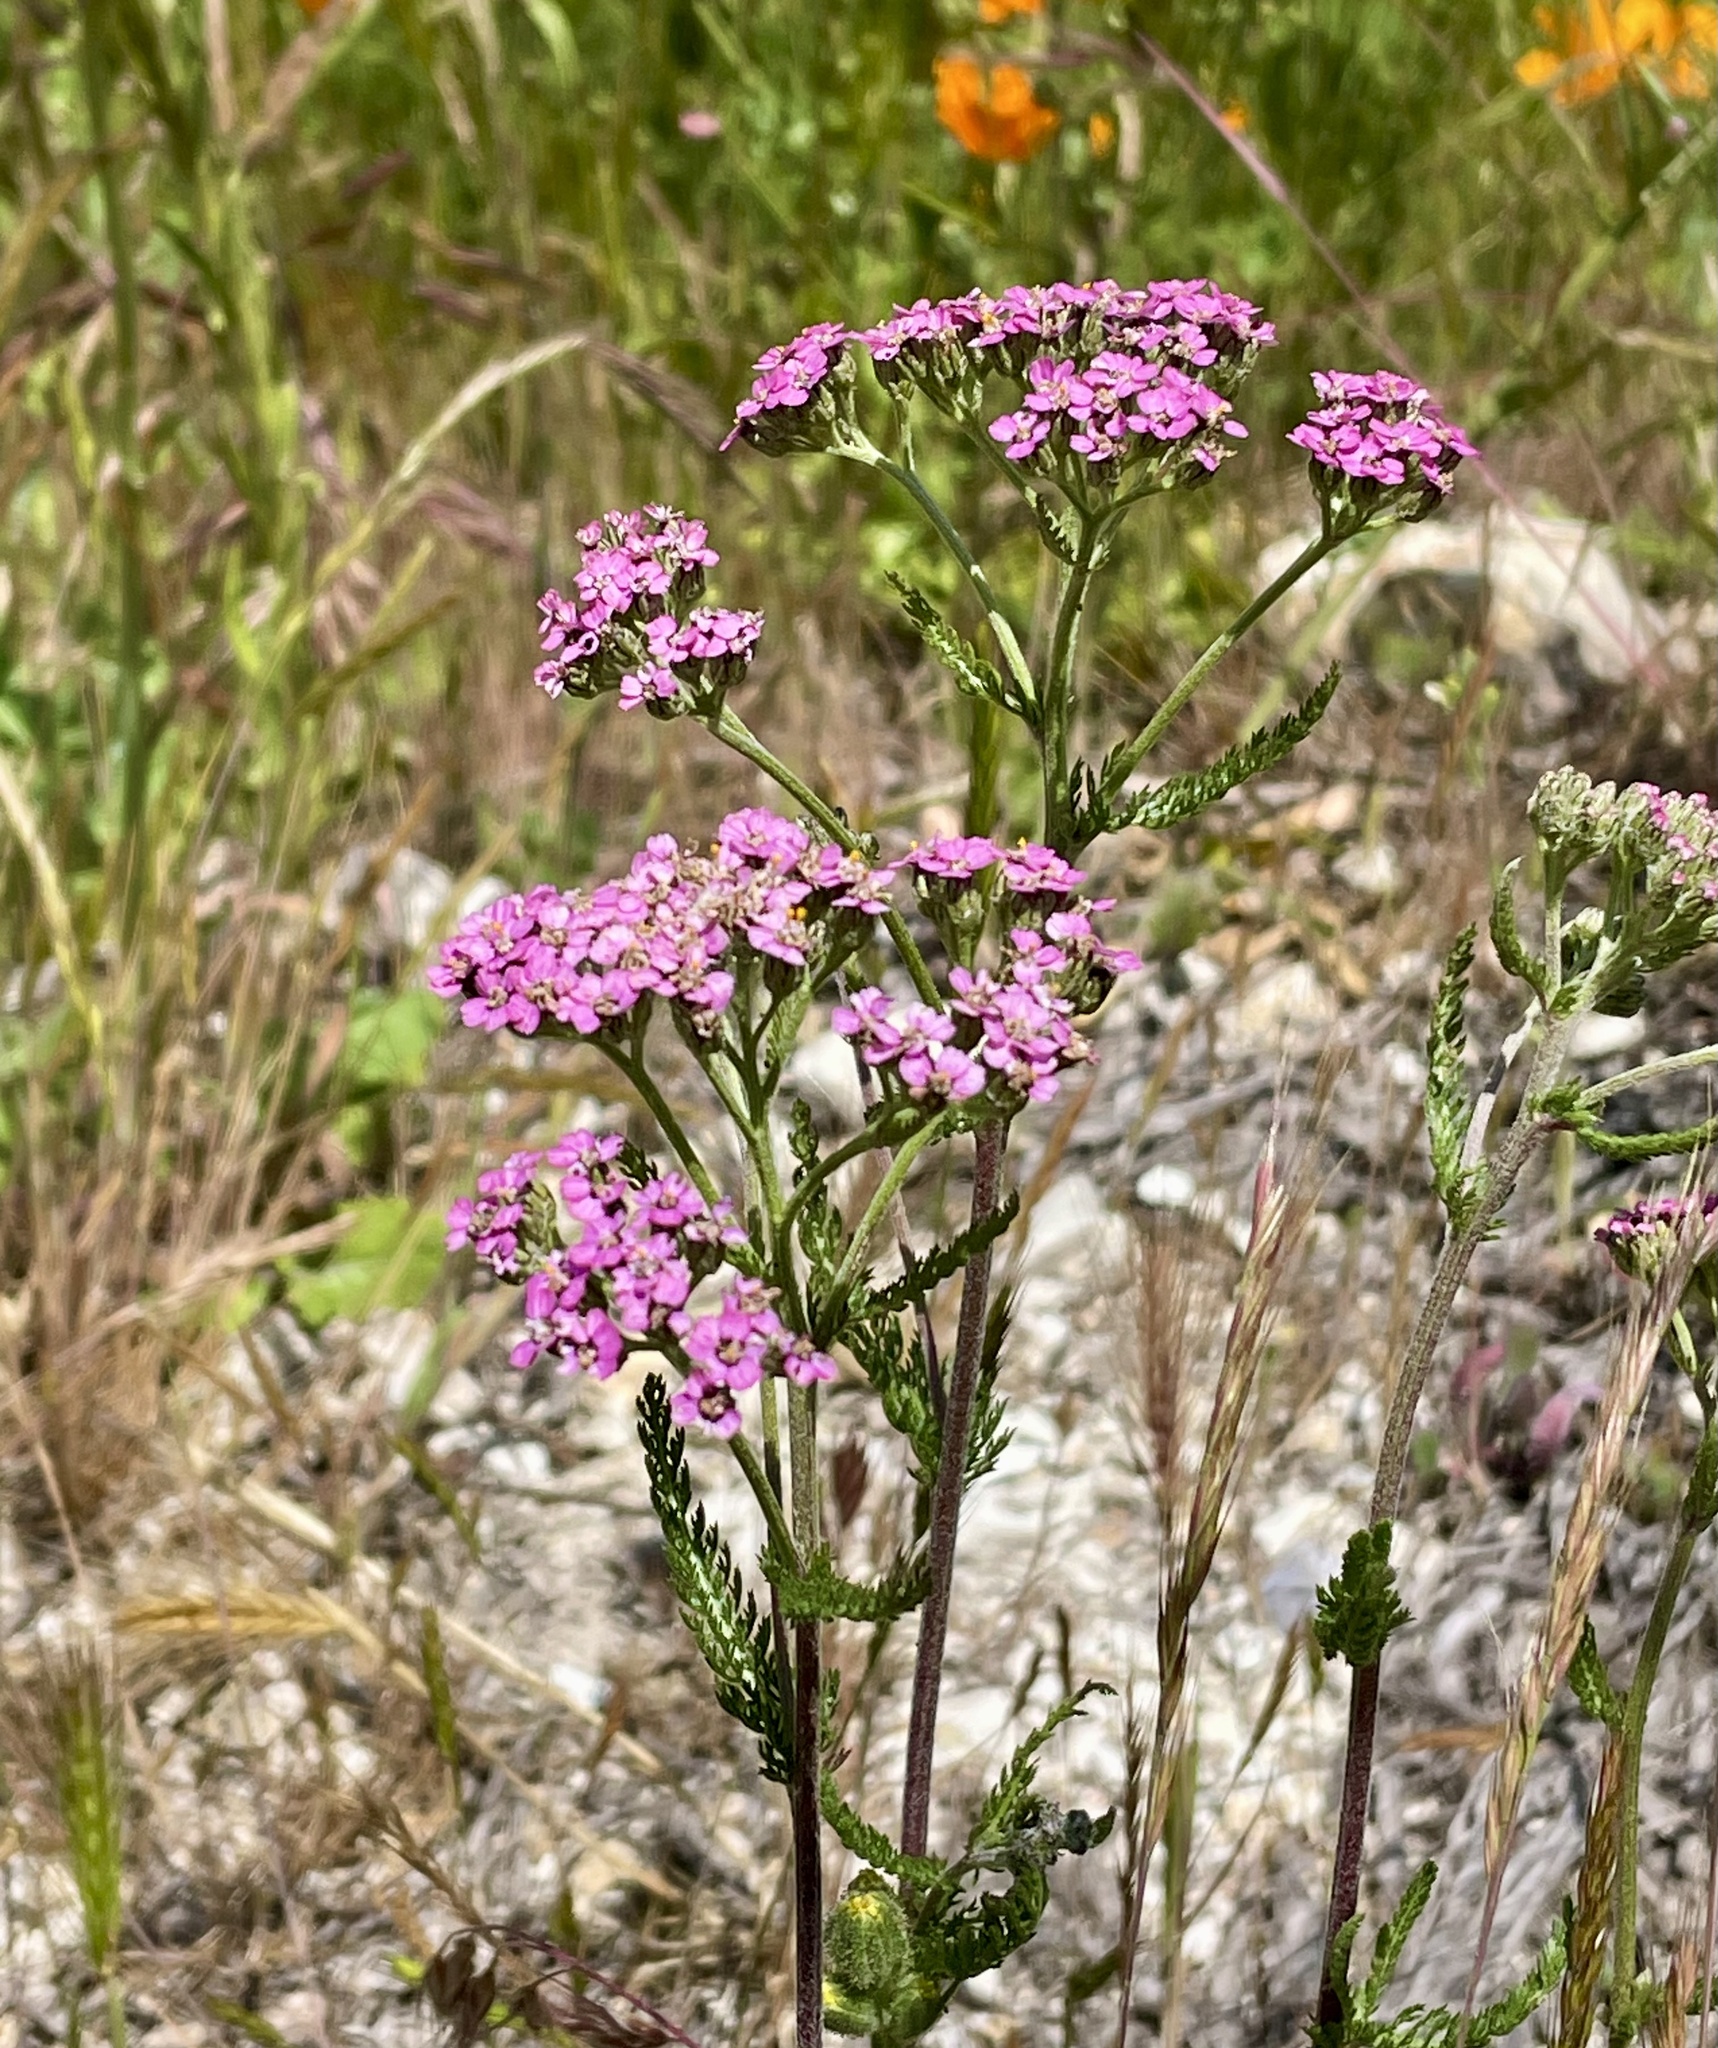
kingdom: Plantae
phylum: Tracheophyta
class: Magnoliopsida
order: Asterales
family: Asteraceae
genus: Achillea
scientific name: Achillea millefolium
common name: Yarrow
